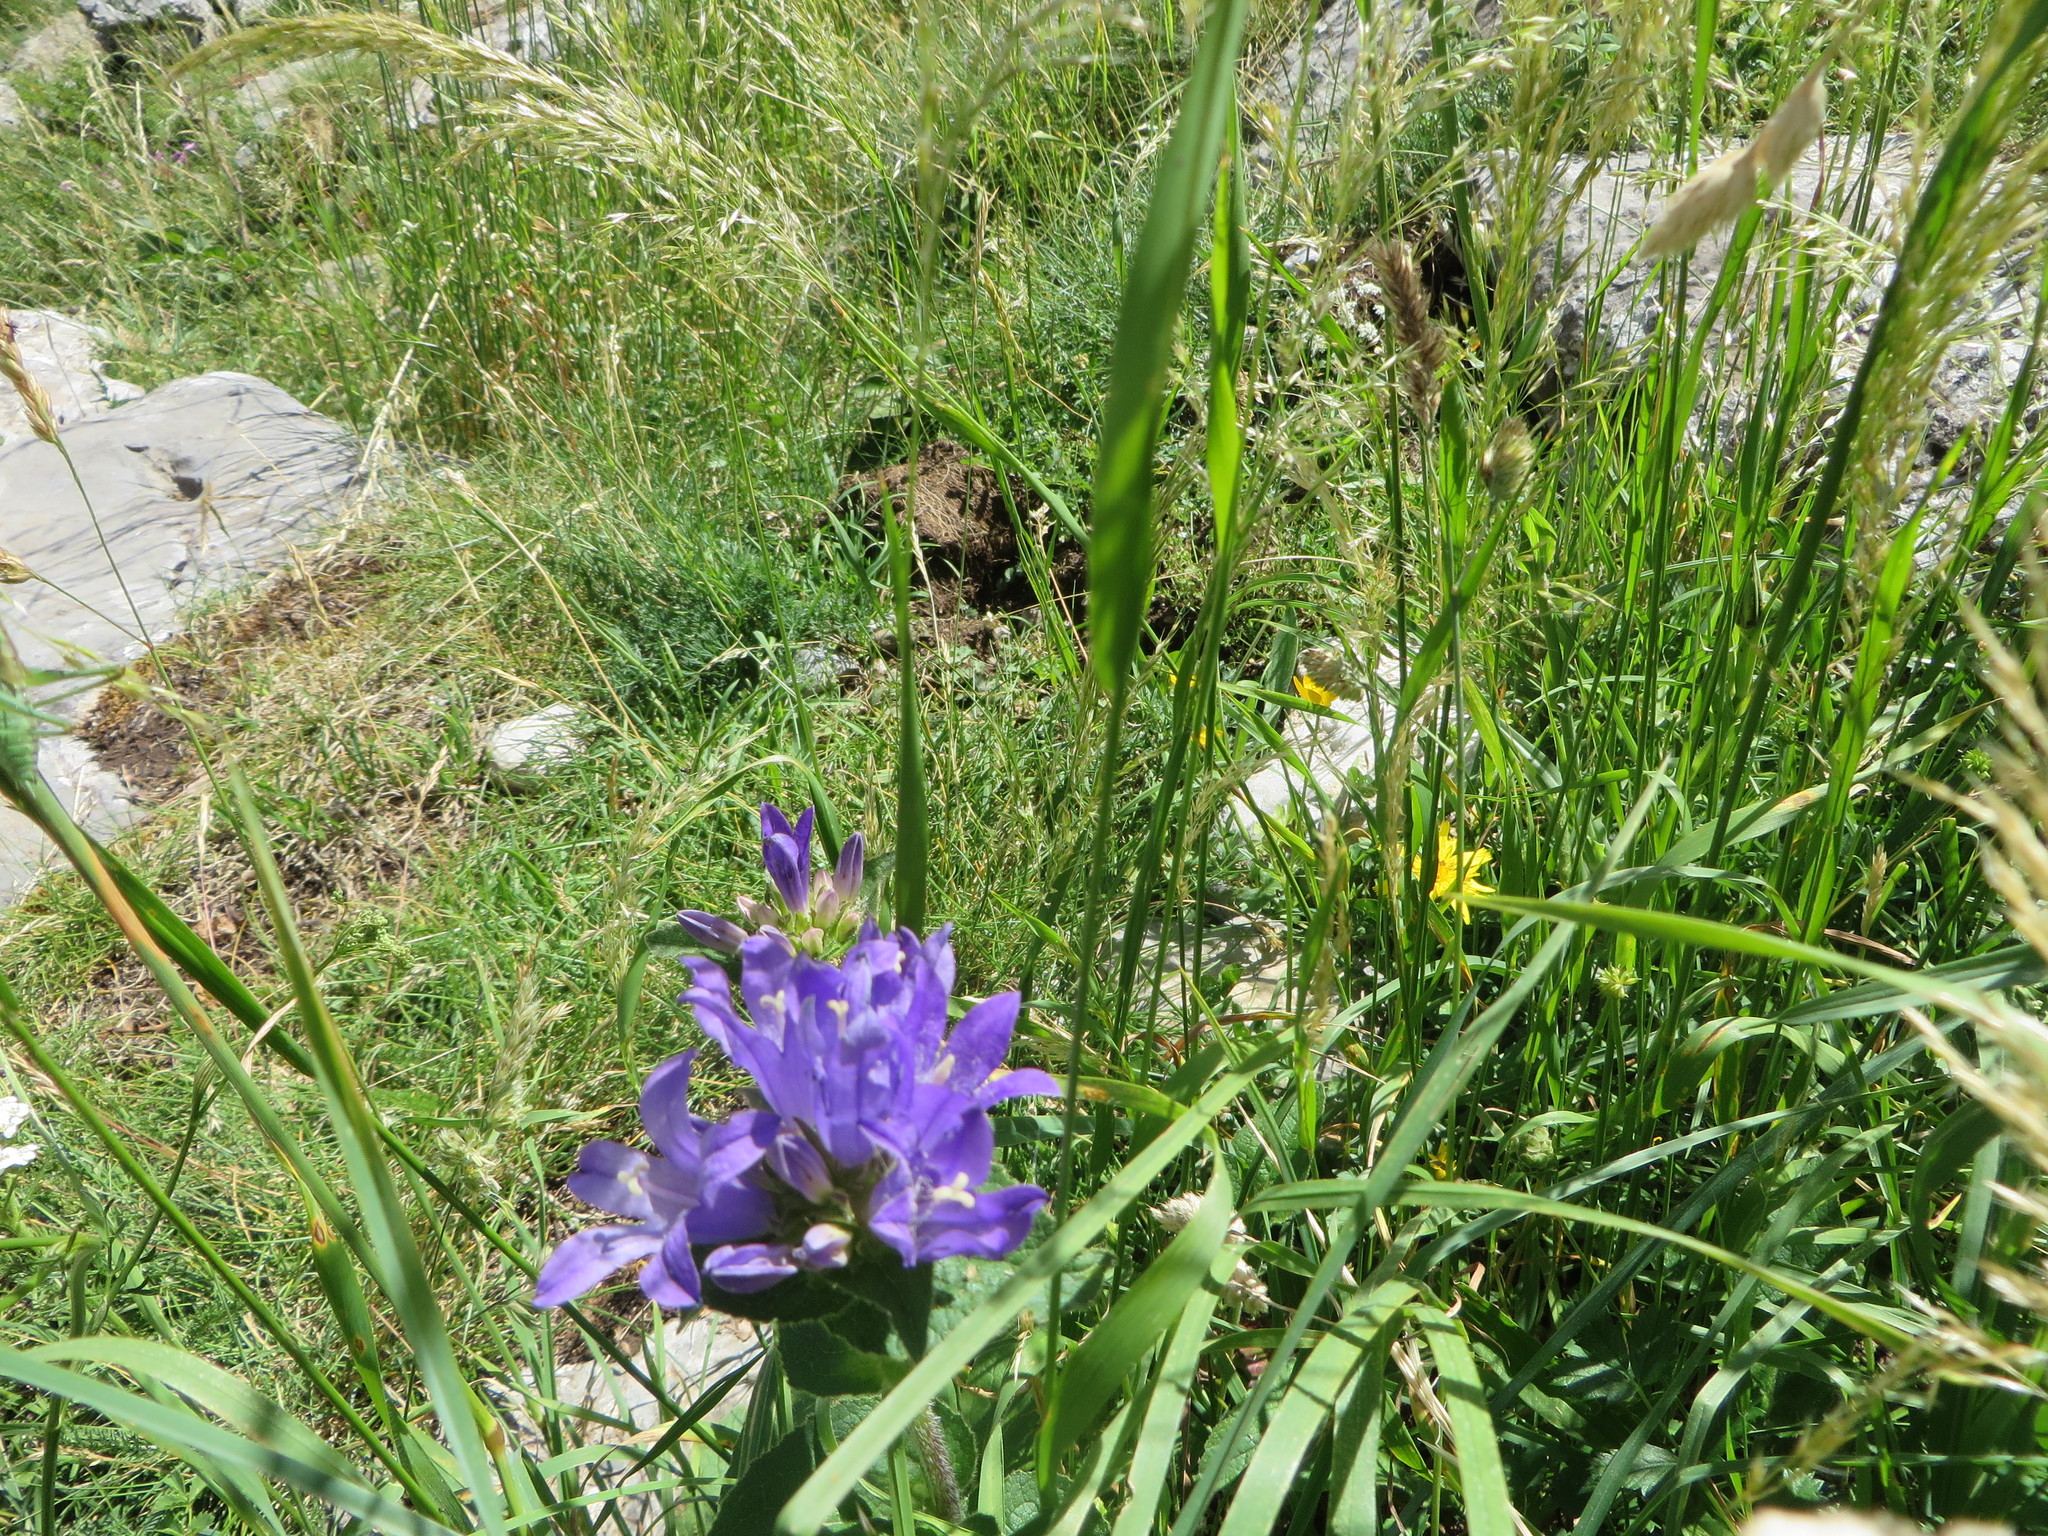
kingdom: Plantae
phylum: Tracheophyta
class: Magnoliopsida
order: Asterales
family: Campanulaceae
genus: Campanula
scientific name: Campanula glomerata
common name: Clustered bellflower
